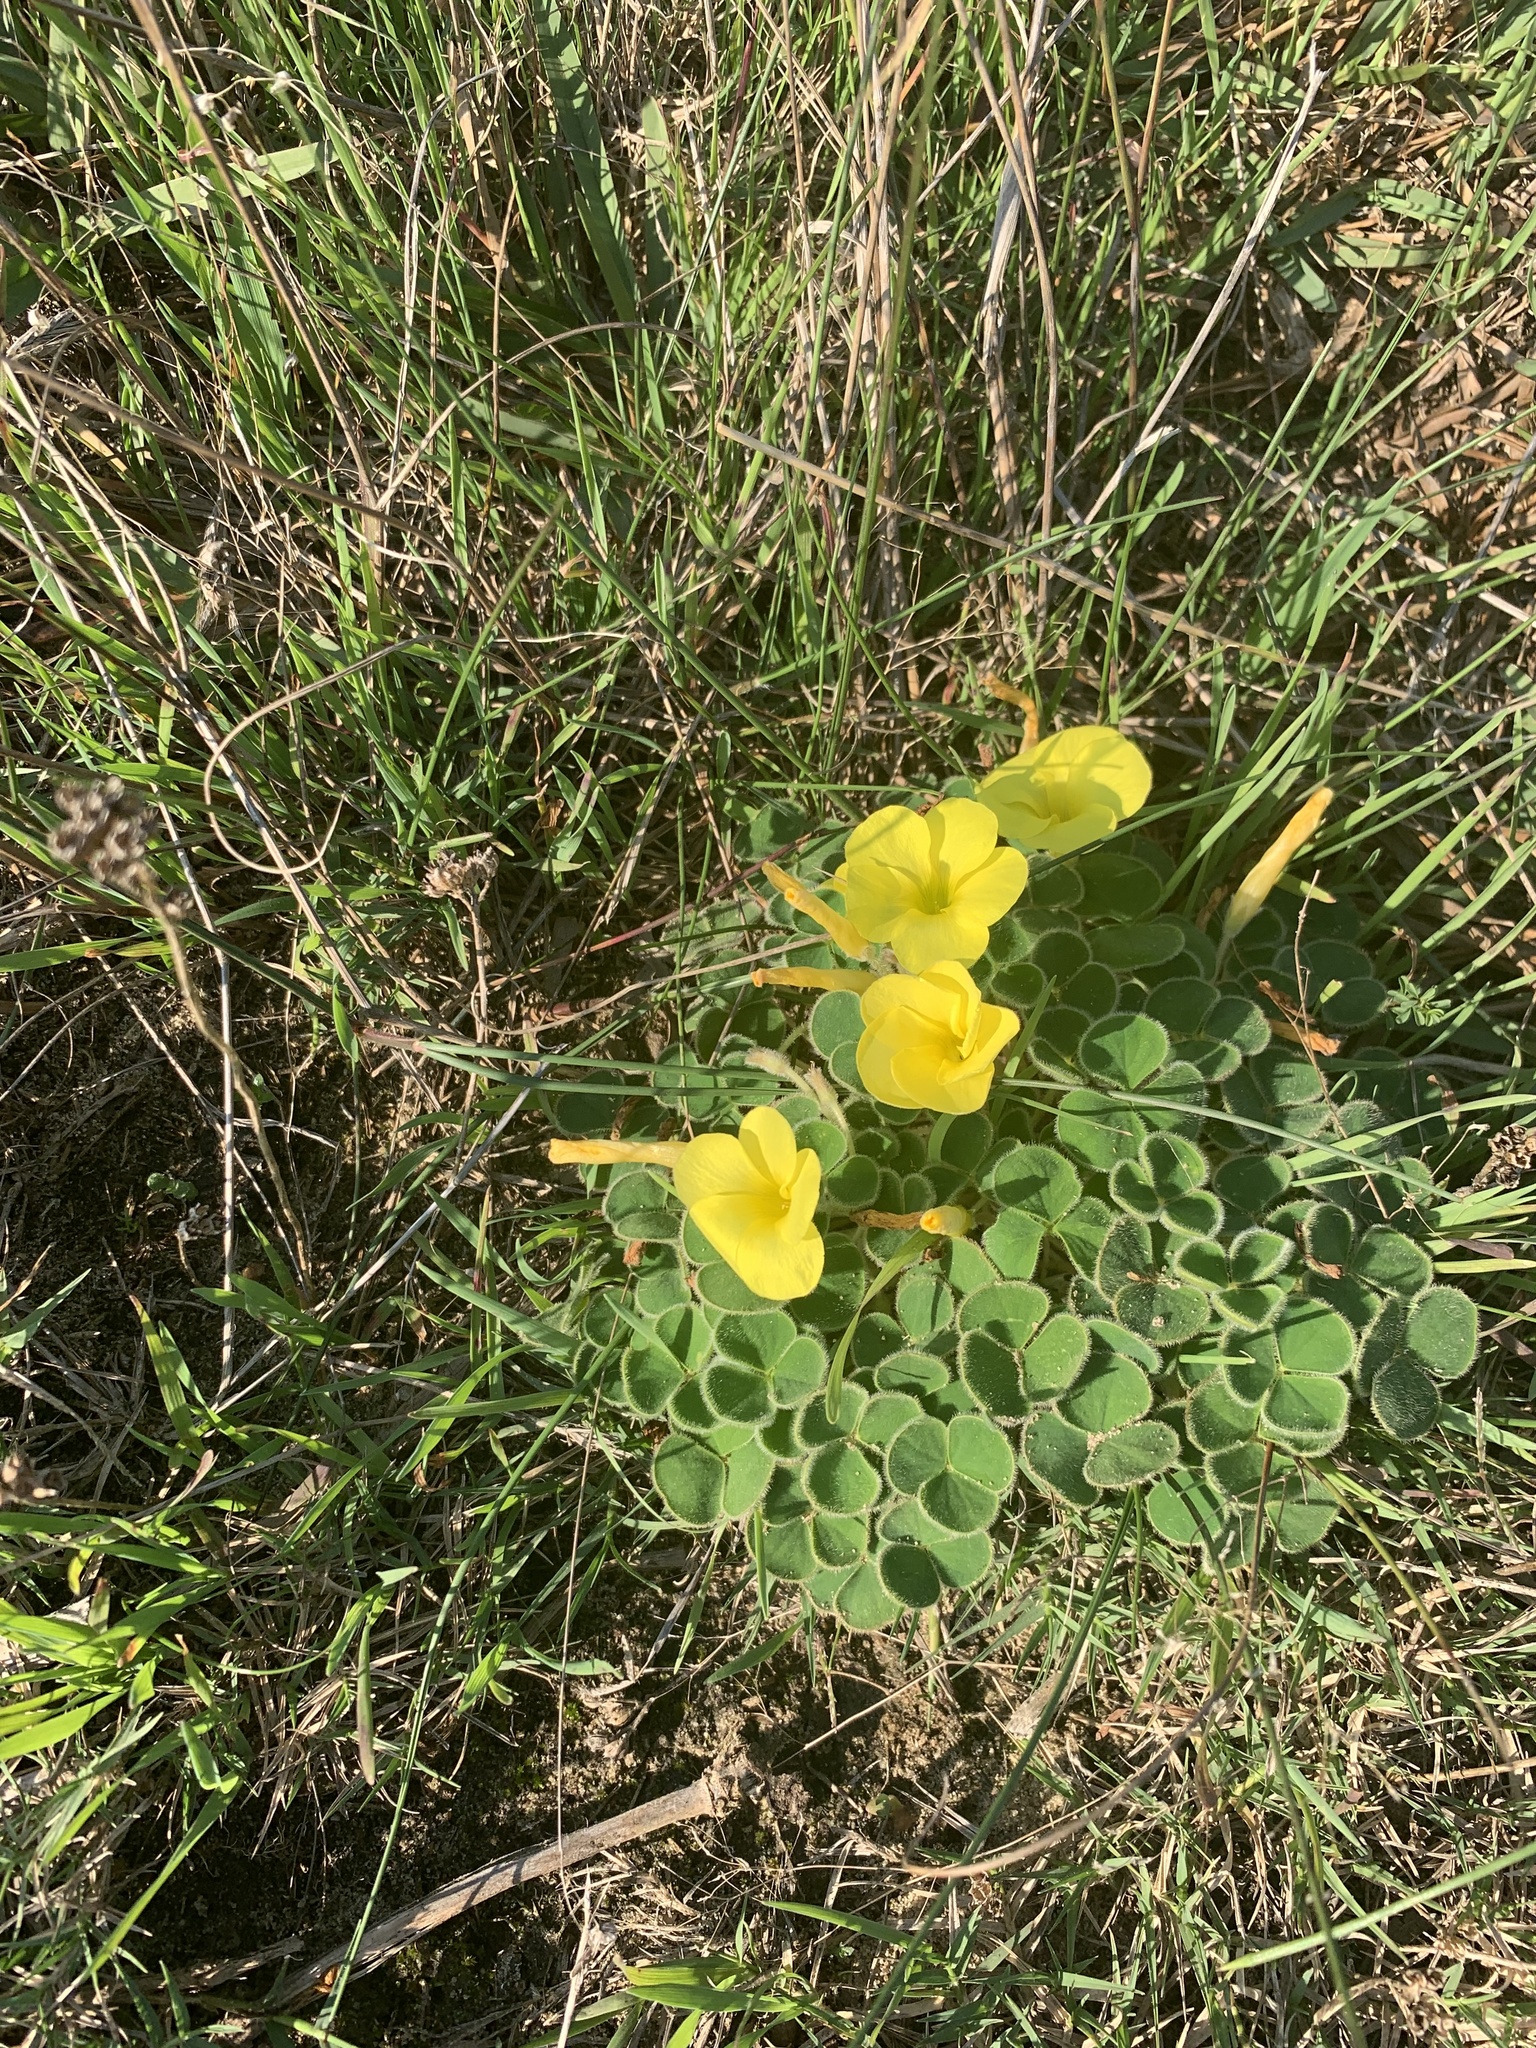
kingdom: Plantae
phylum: Tracheophyta
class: Magnoliopsida
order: Oxalidales
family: Oxalidaceae
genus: Oxalis
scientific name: Oxalis luteola
